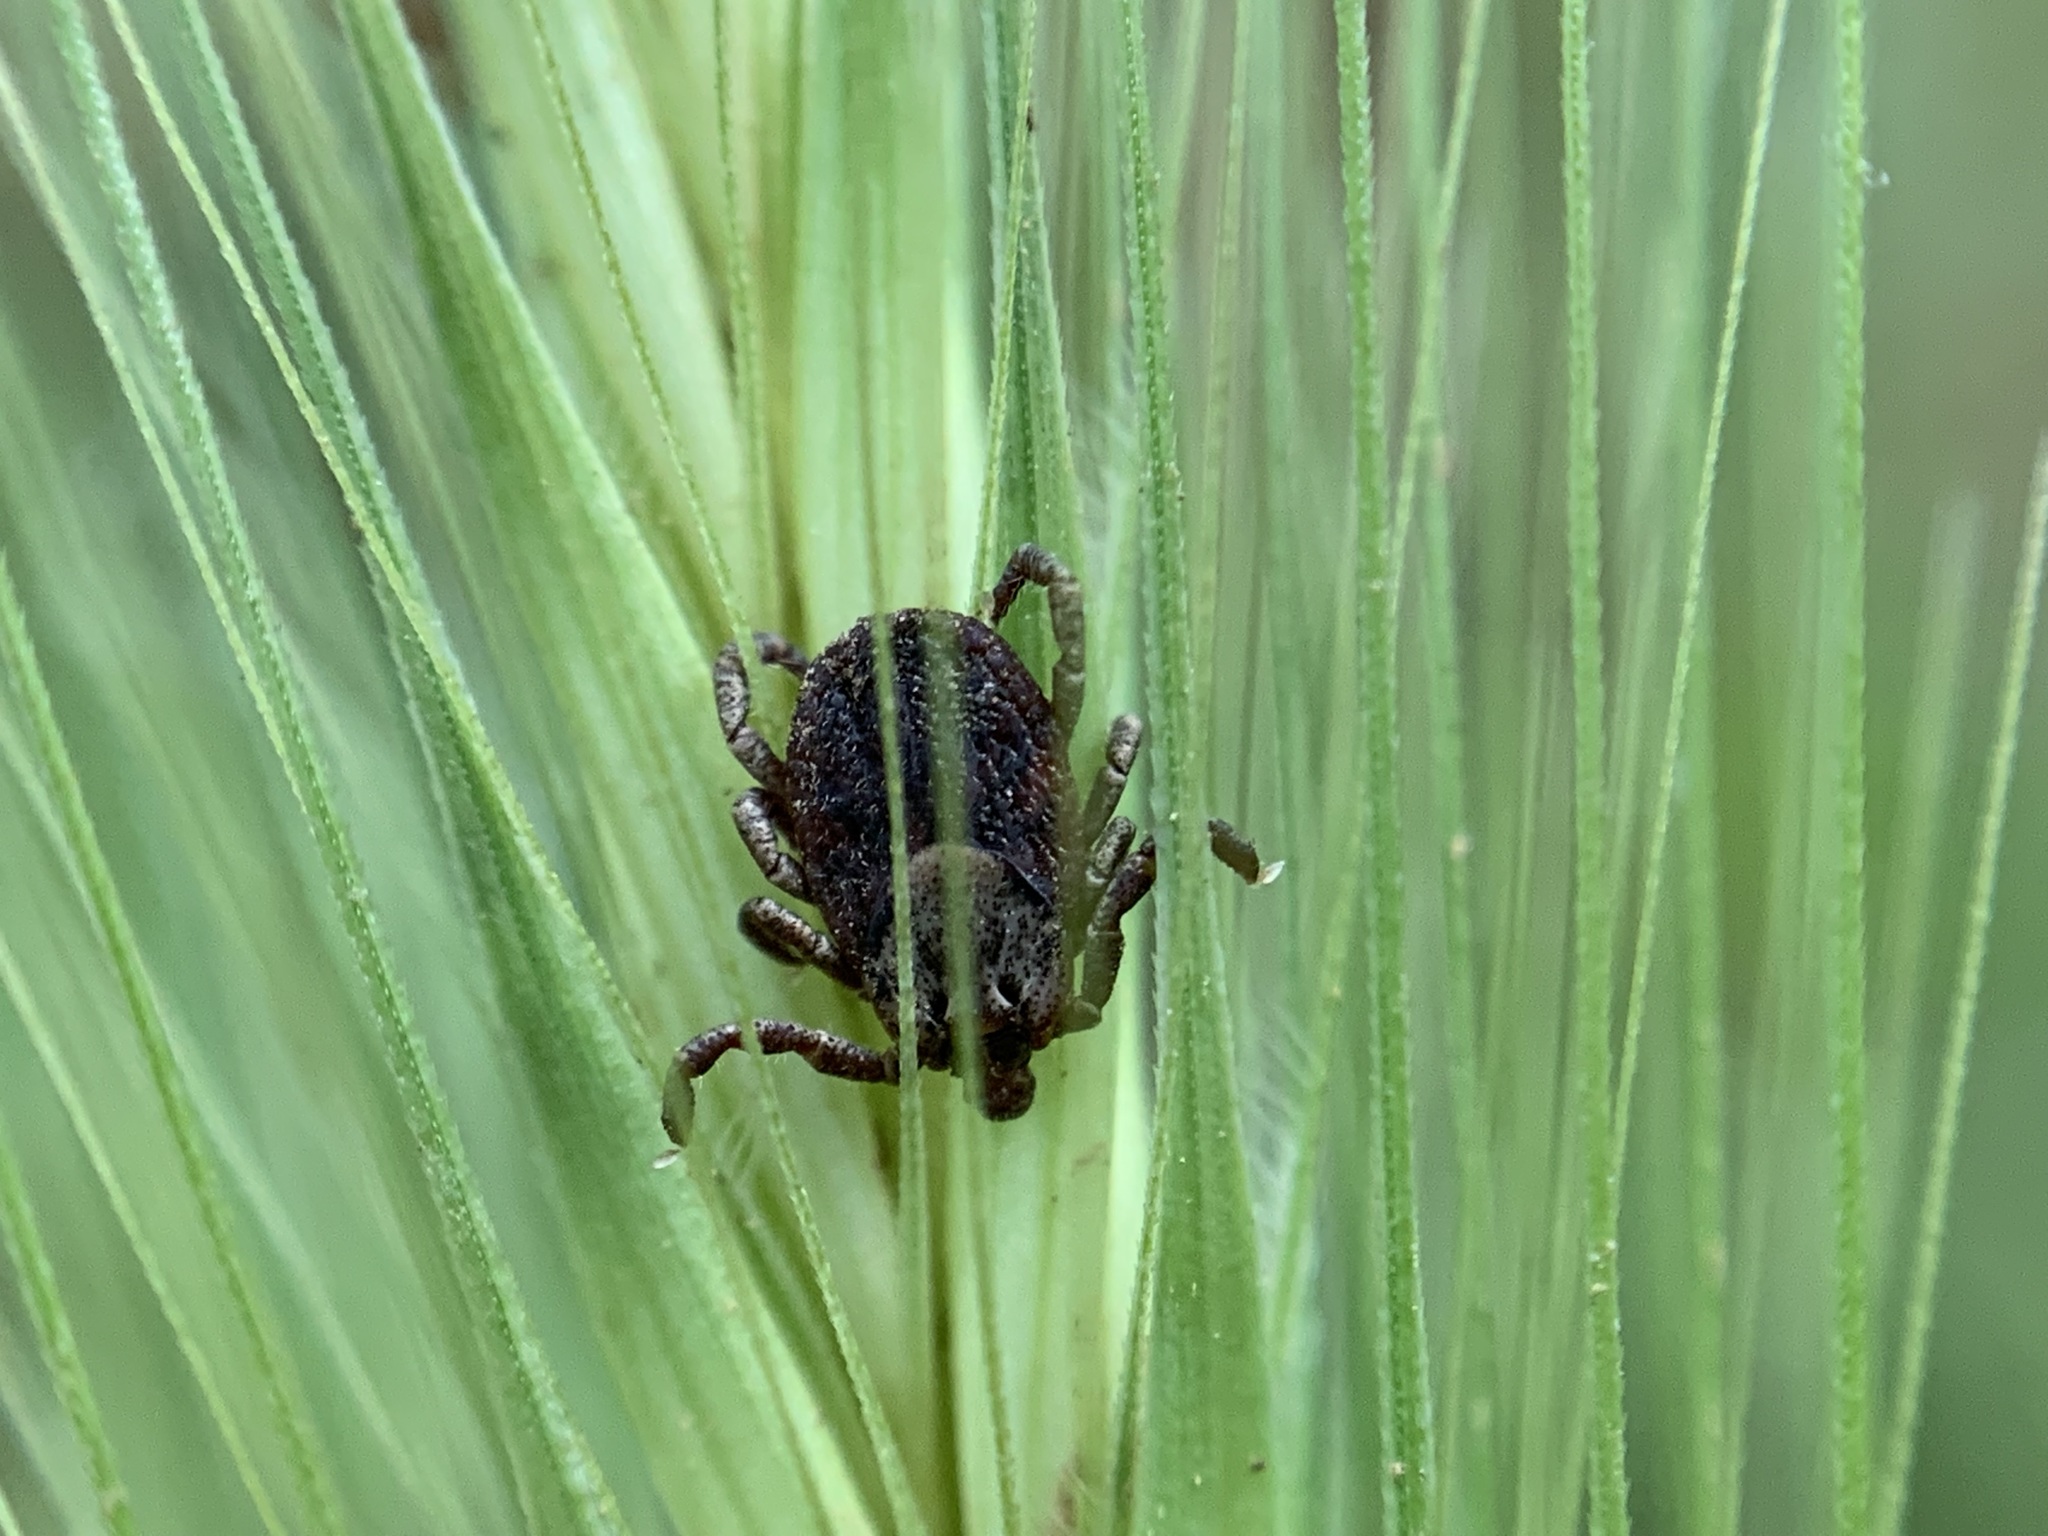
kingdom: Animalia
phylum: Arthropoda
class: Arachnida
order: Ixodida
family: Ixodidae
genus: Dermacentor
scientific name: Dermacentor occidentalis
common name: Net tick
